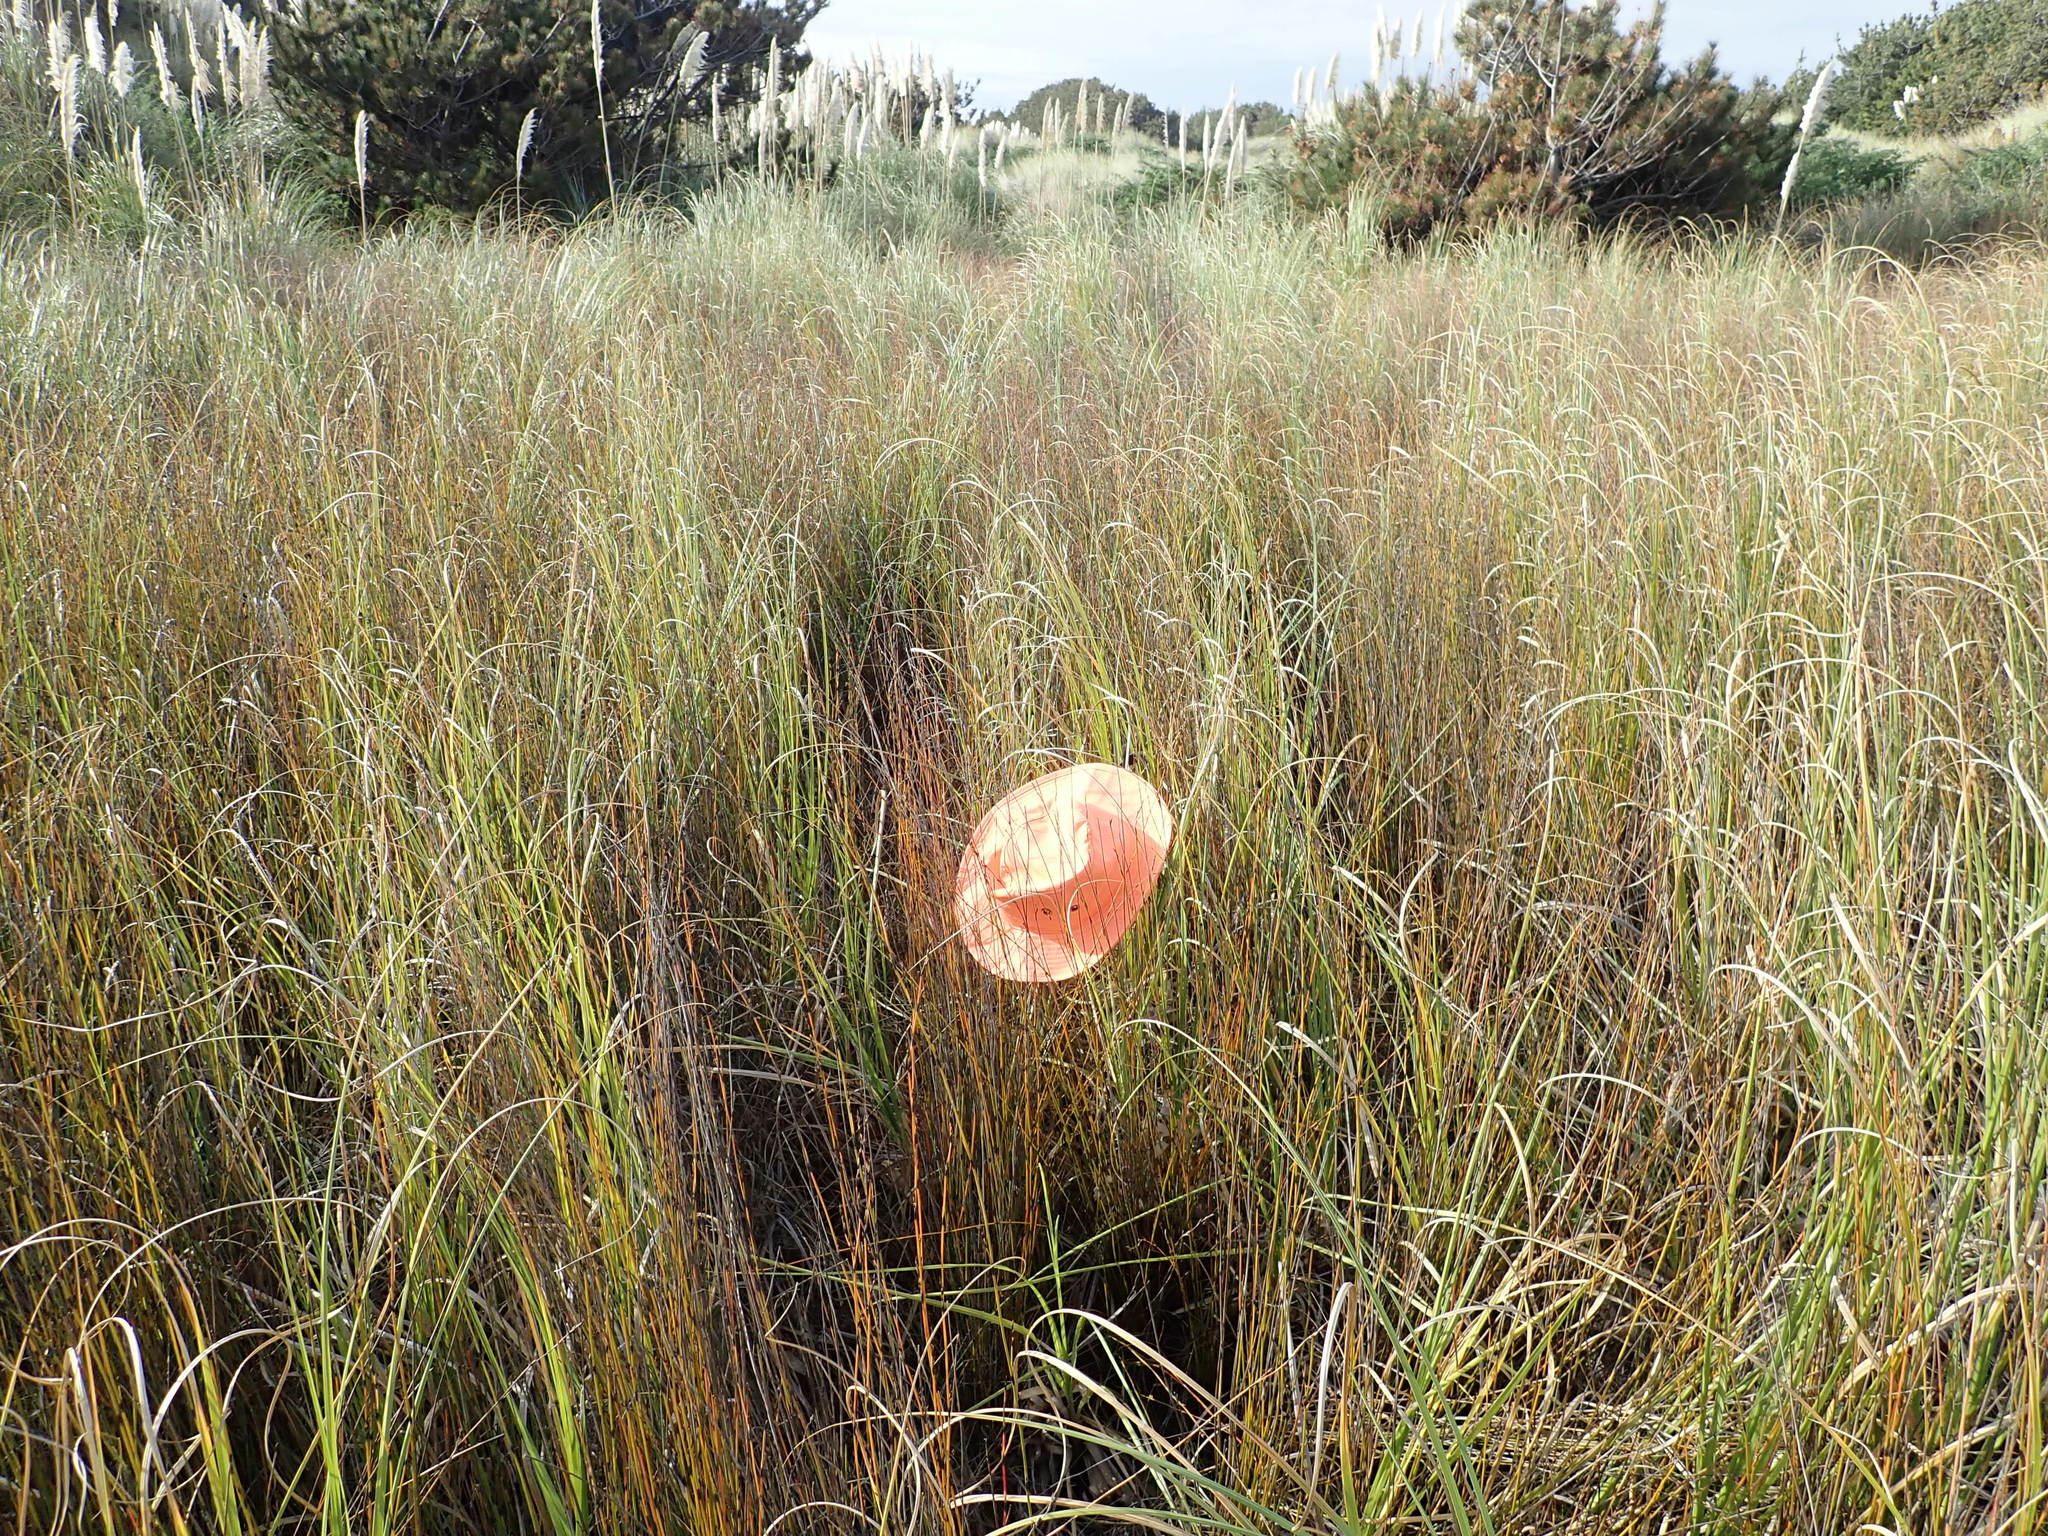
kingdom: Plantae
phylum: Tracheophyta
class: Liliopsida
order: Poales
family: Restionaceae
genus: Apodasmia
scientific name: Apodasmia similis
